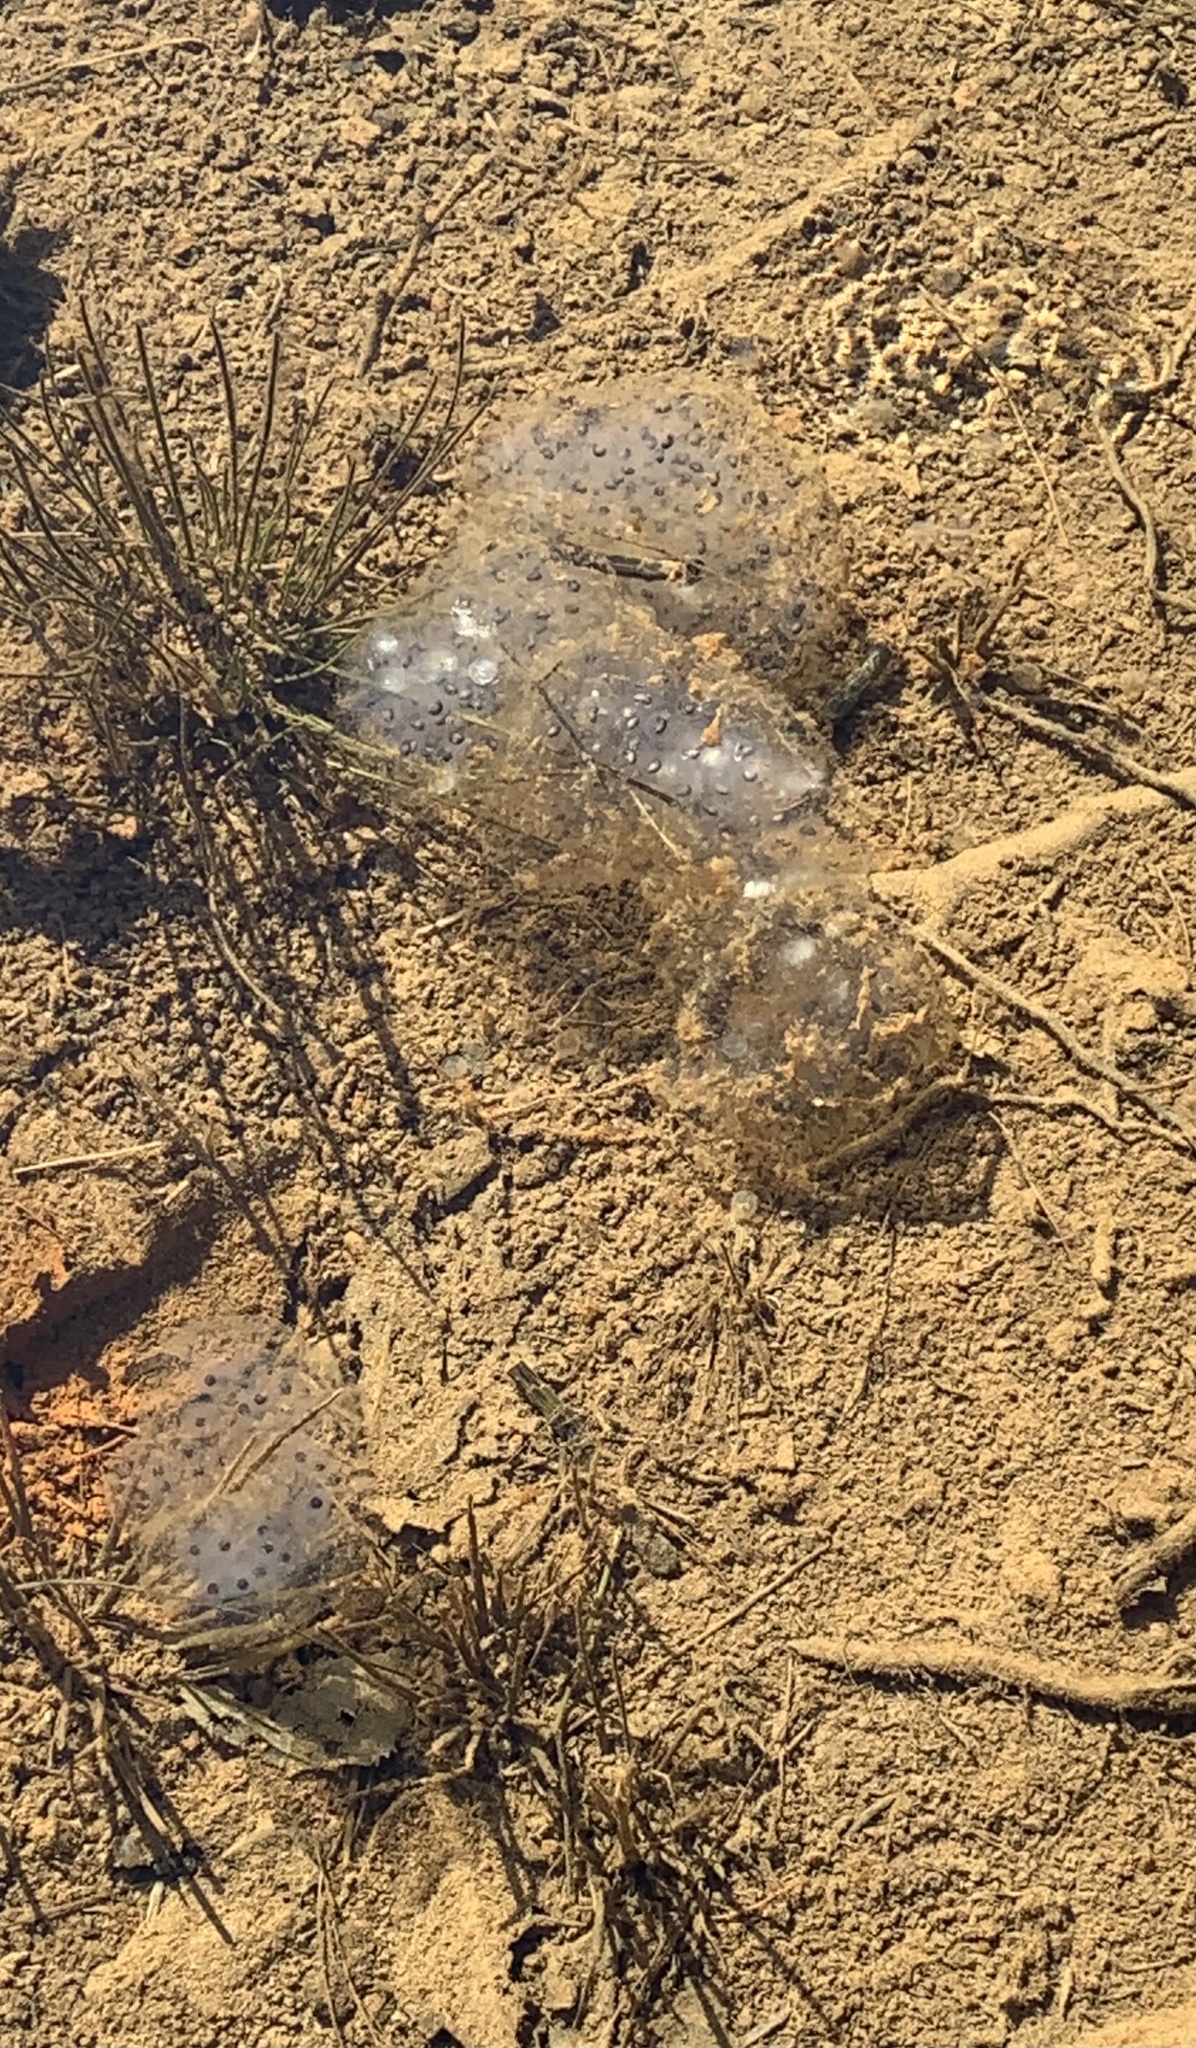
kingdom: Animalia
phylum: Chordata
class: Amphibia
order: Caudata
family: Ambystomatidae
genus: Ambystoma
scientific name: Ambystoma maculatum
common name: Spotted salamander
